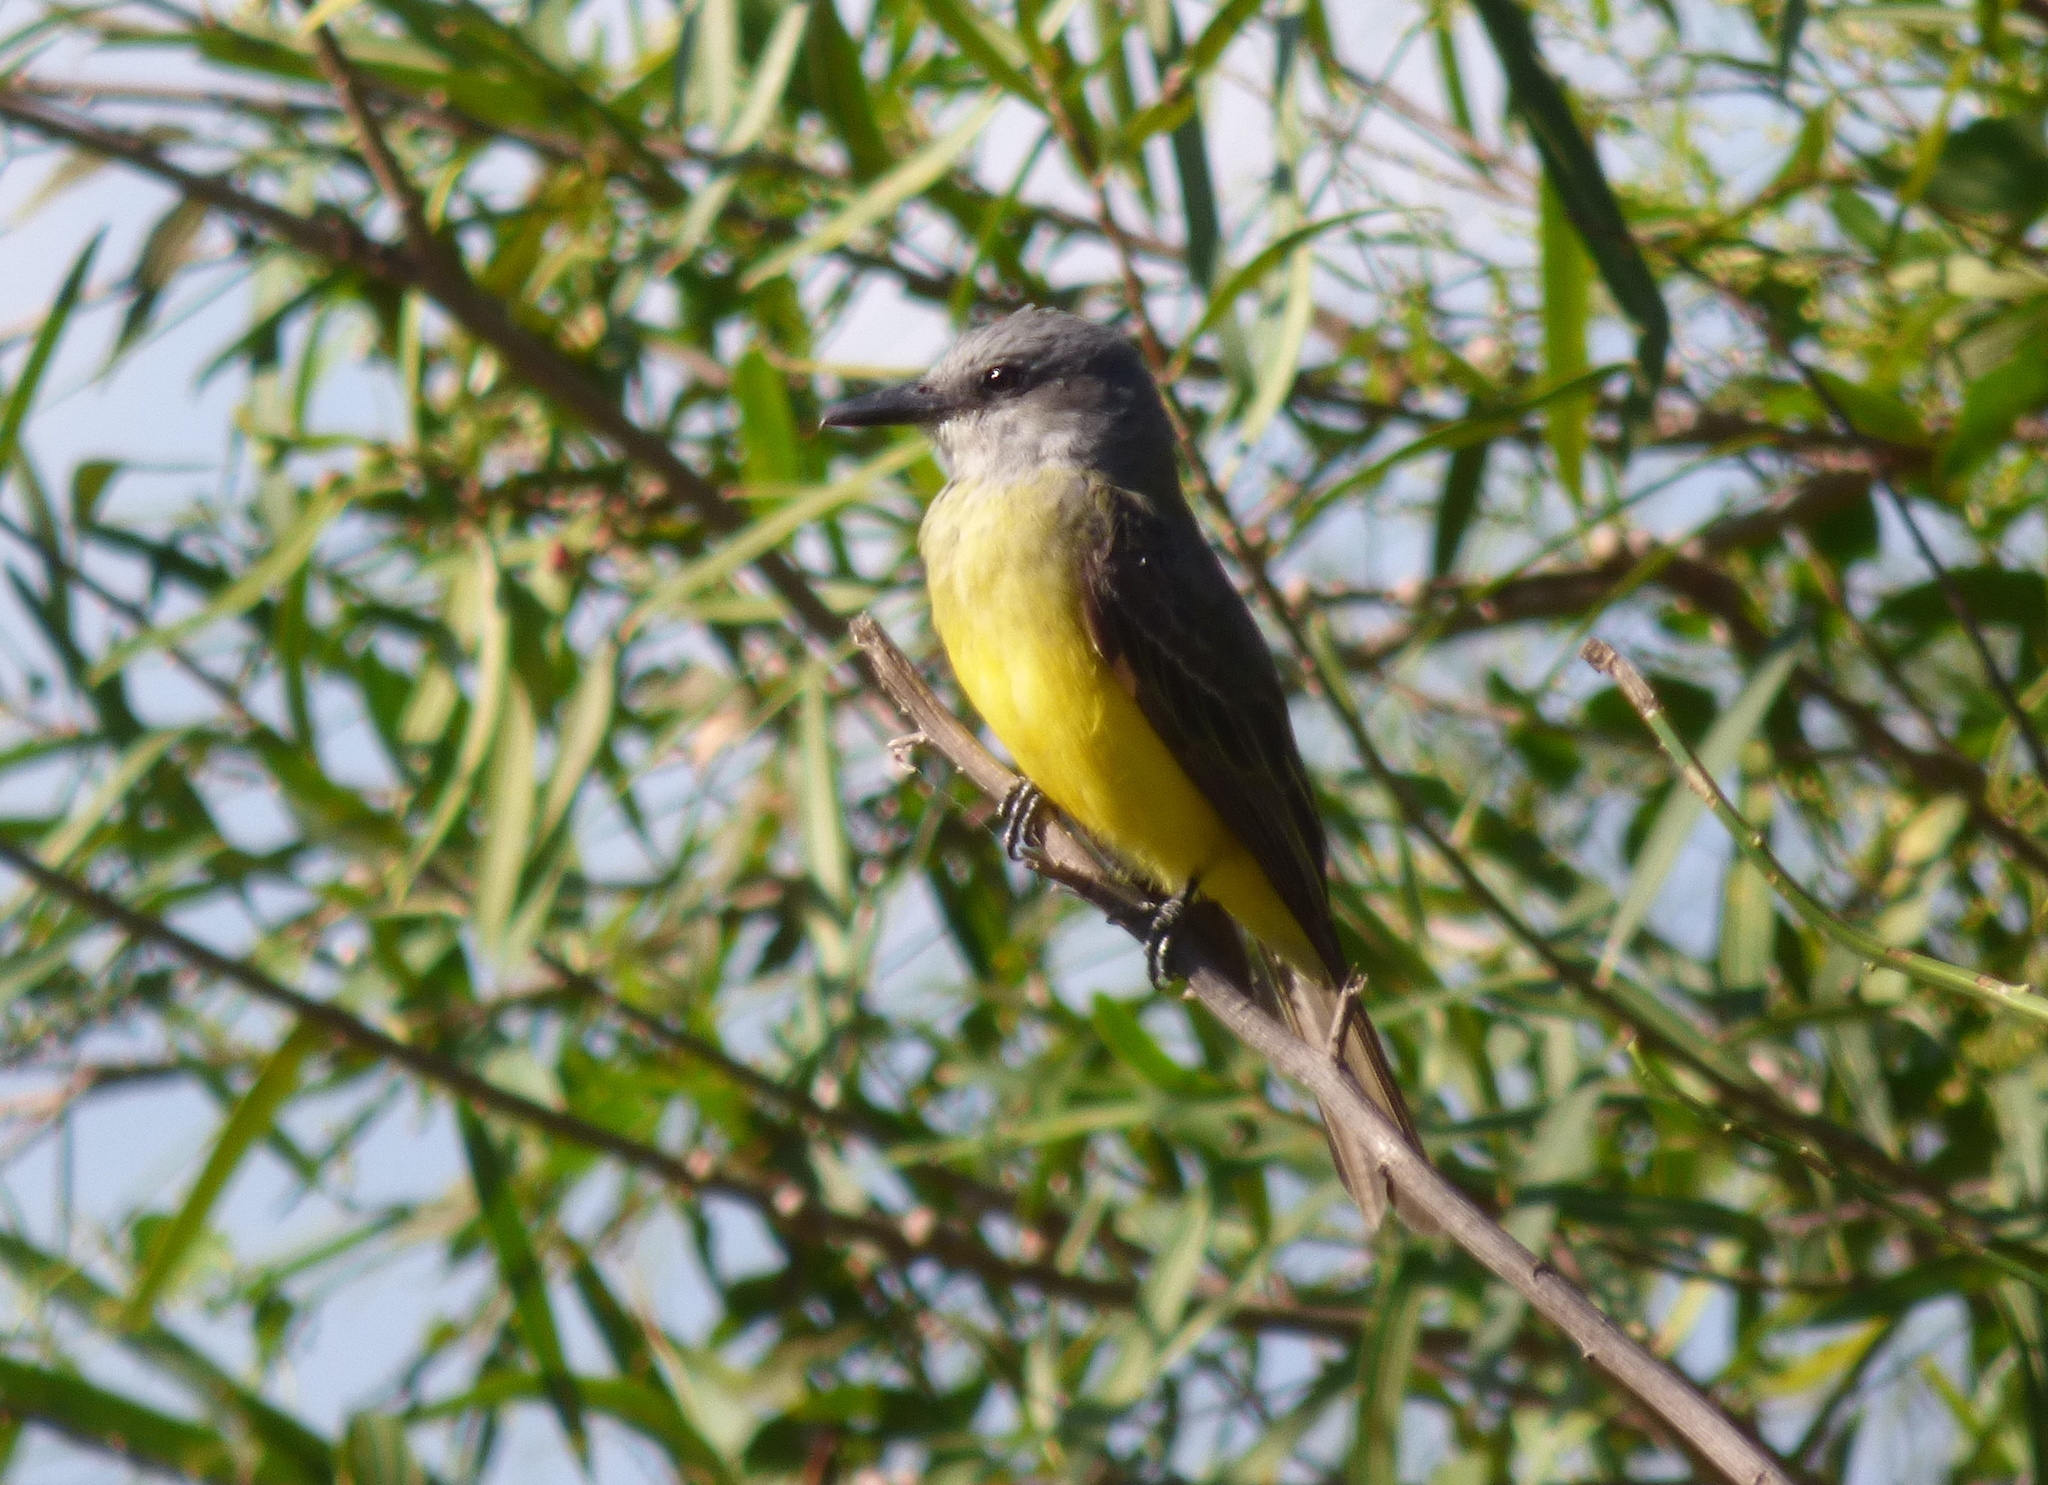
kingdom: Animalia
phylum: Chordata
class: Aves
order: Passeriformes
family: Tyrannidae
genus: Tyrannus
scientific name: Tyrannus melancholicus
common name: Tropical kingbird
